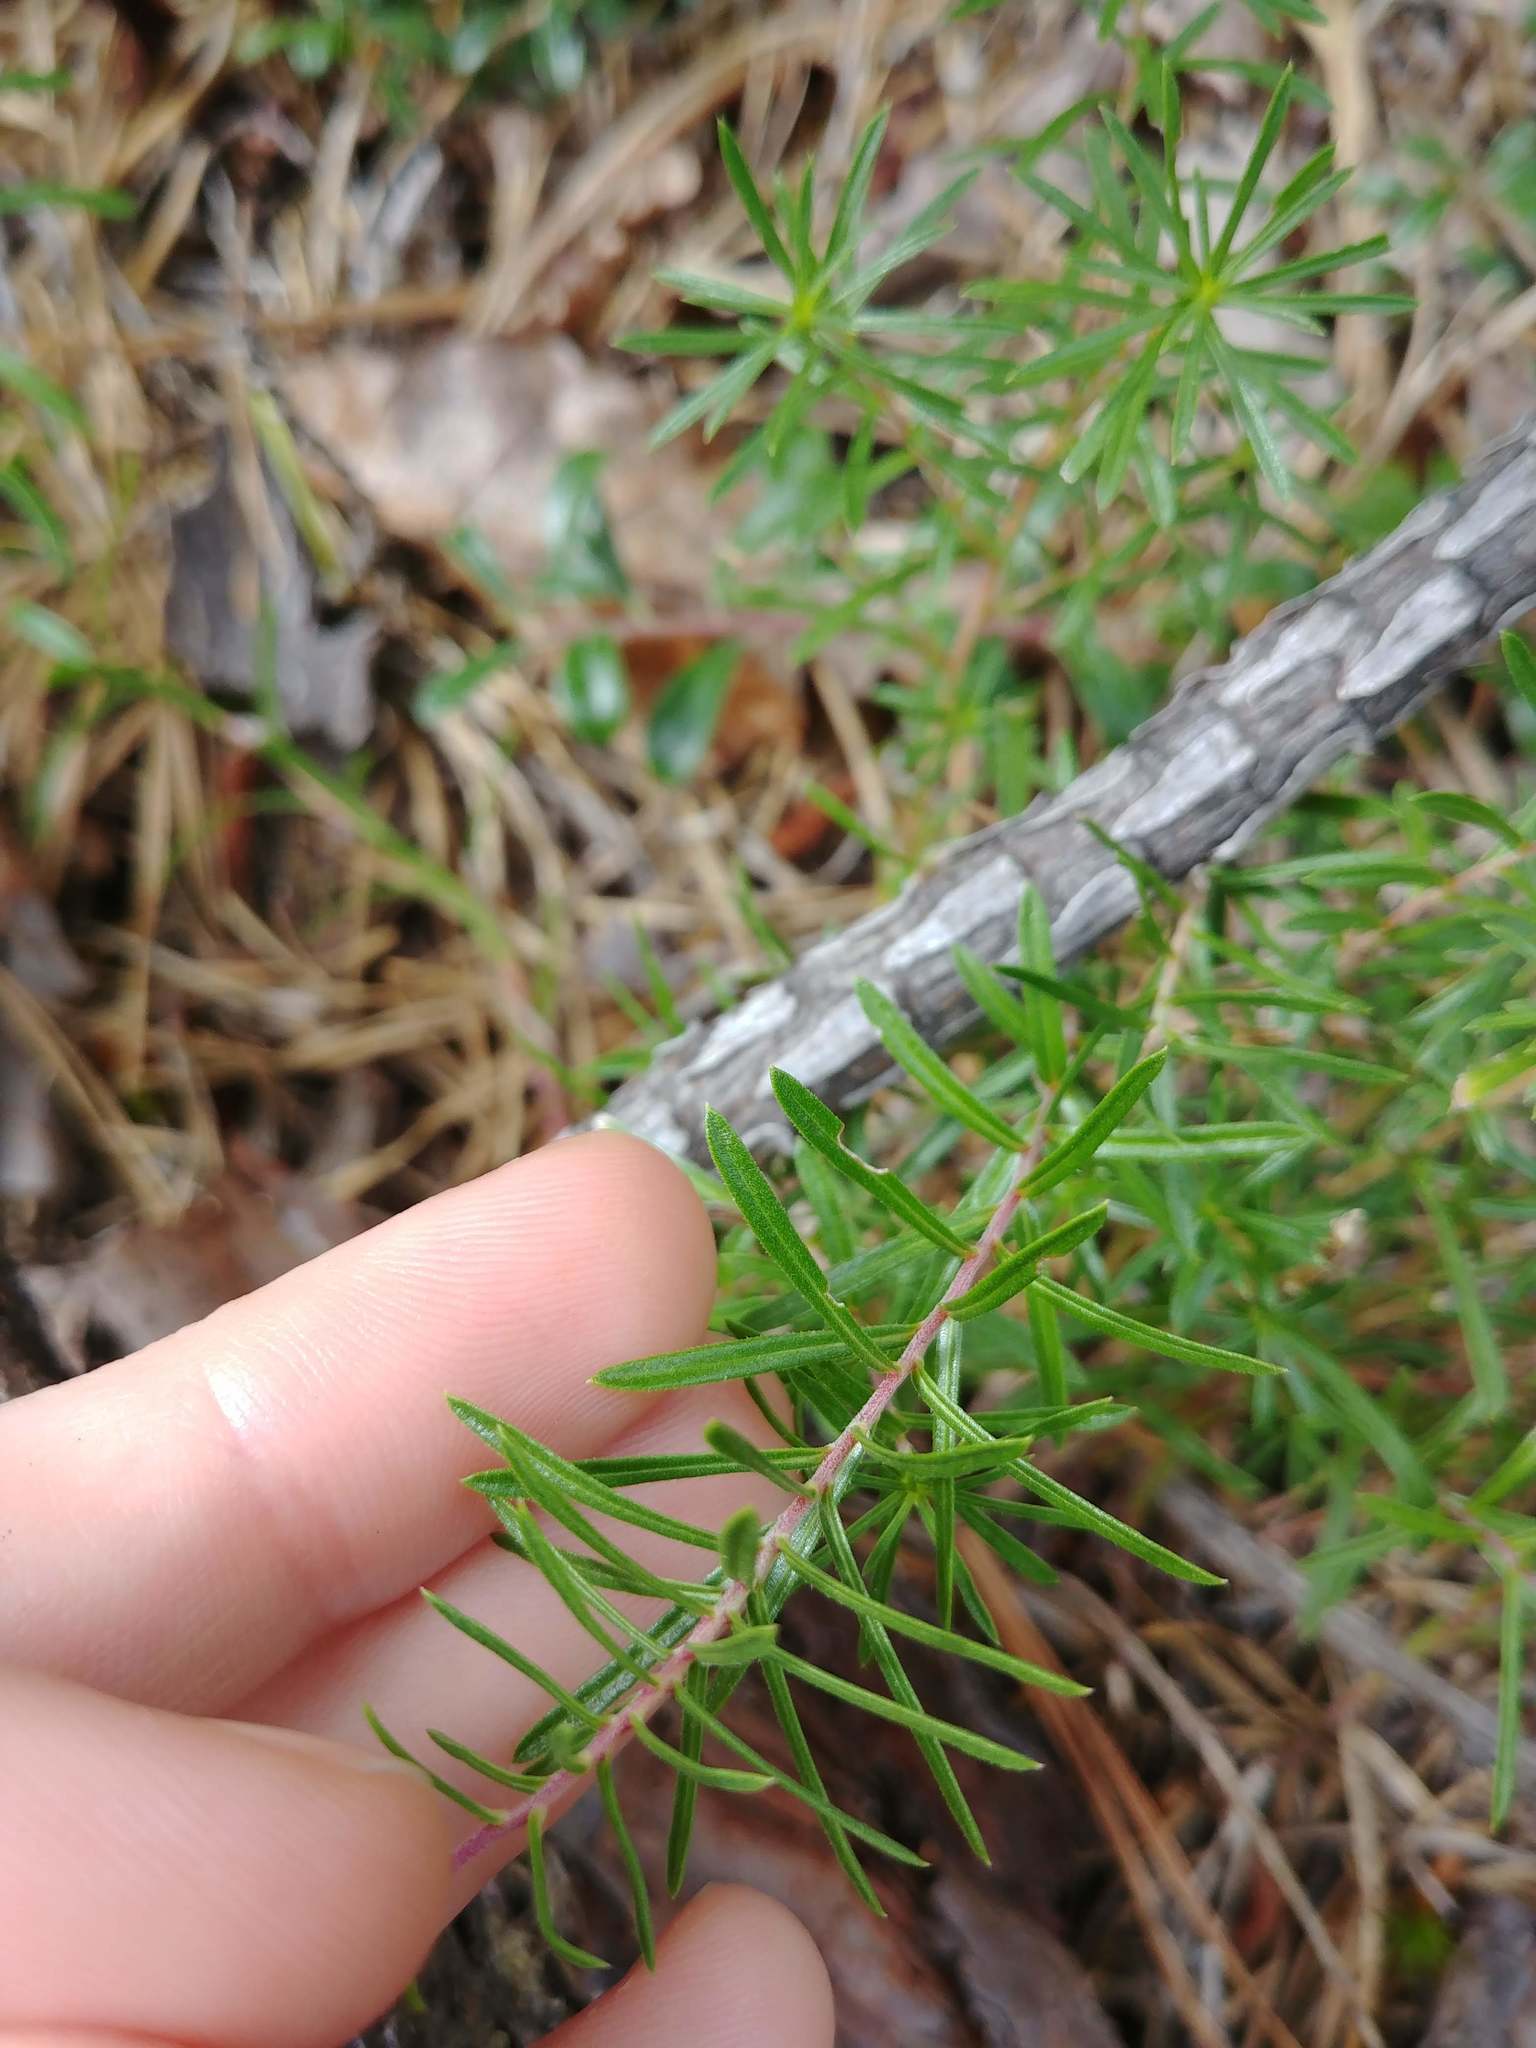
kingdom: Plantae
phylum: Tracheophyta
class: Magnoliopsida
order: Asterales
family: Asteraceae
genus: Ionactis
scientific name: Ionactis linariifolia
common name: Flax-leaf aster
